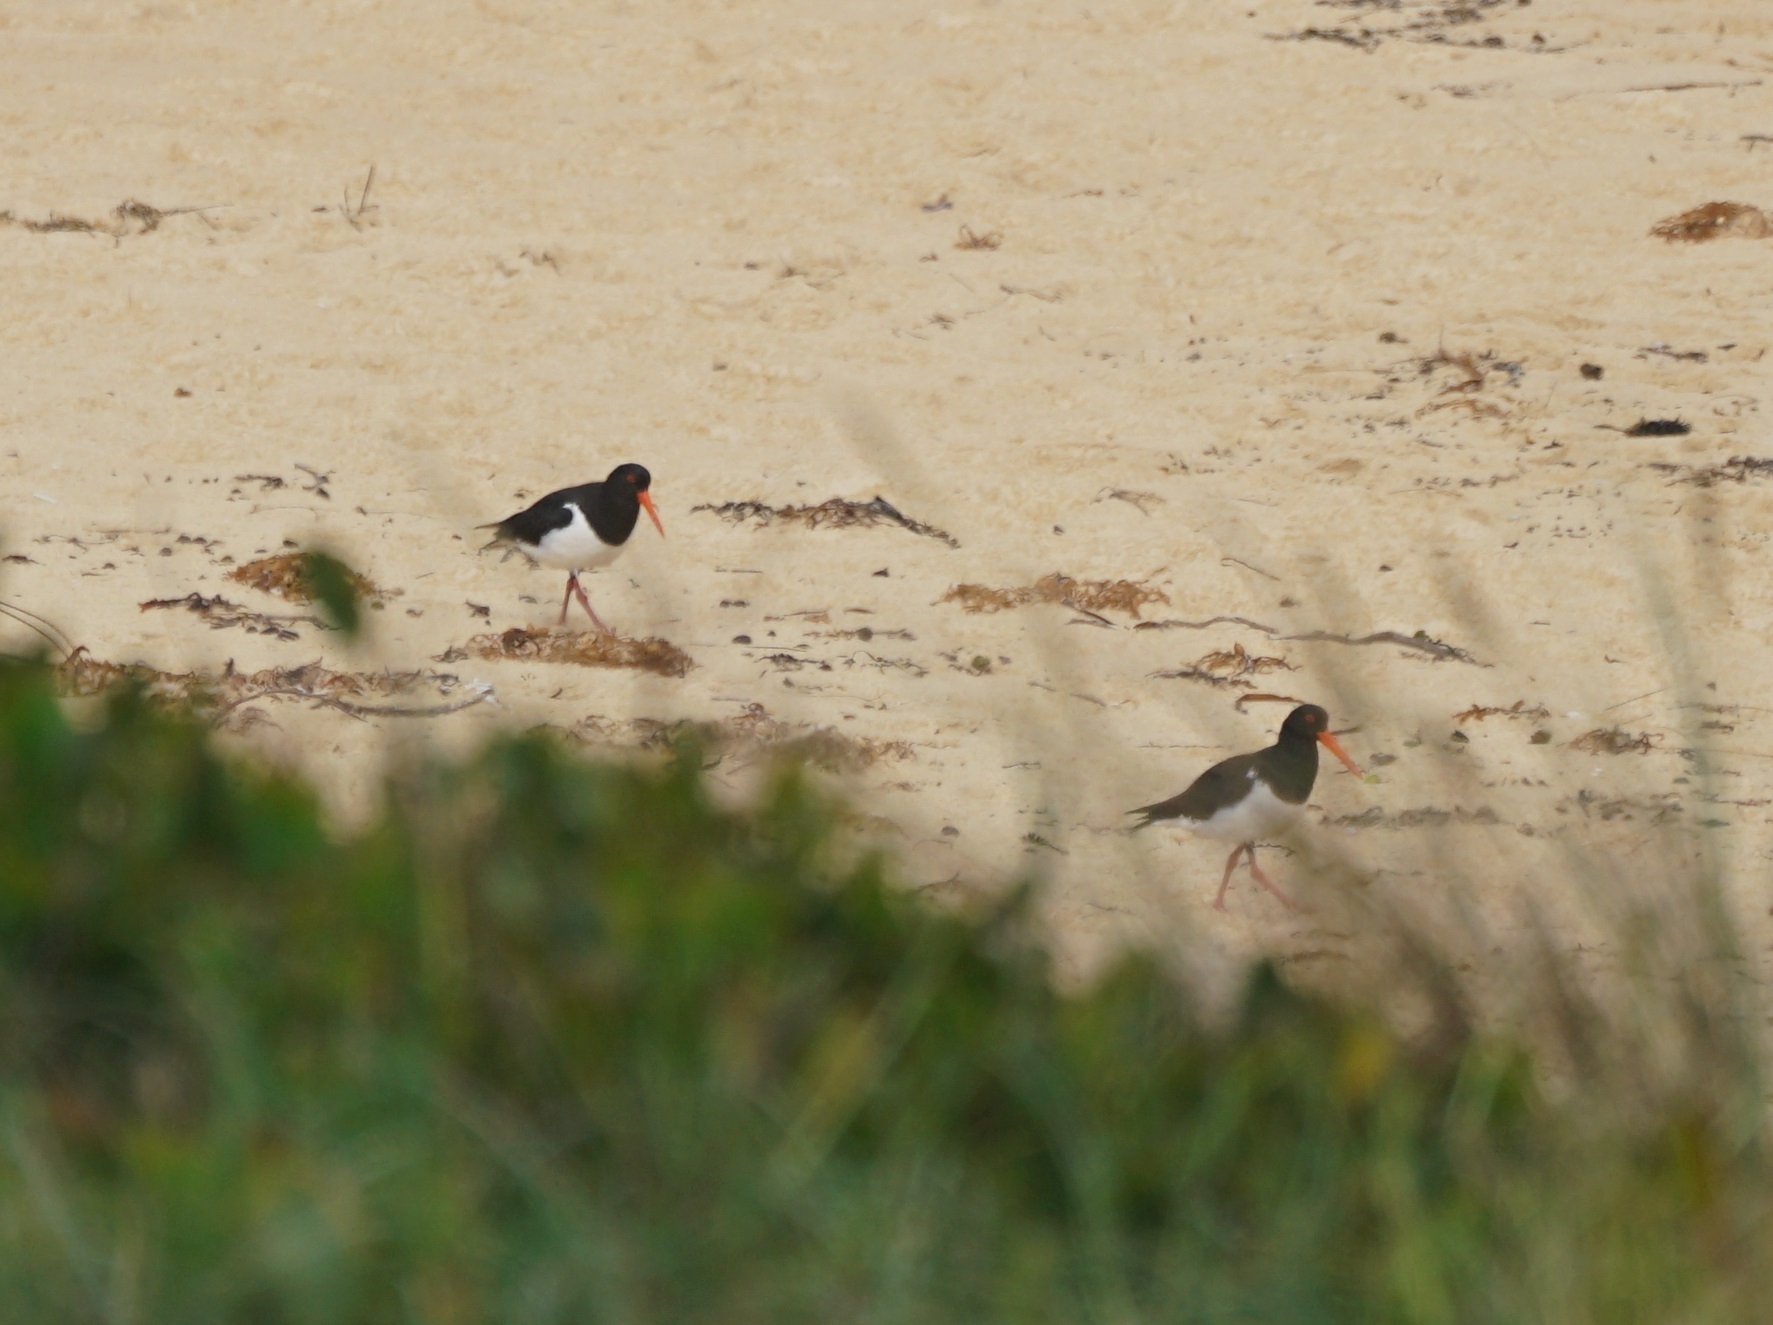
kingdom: Animalia
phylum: Chordata
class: Aves
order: Charadriiformes
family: Haematopodidae
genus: Haematopus
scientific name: Haematopus longirostris
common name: Pied oystercatcher
